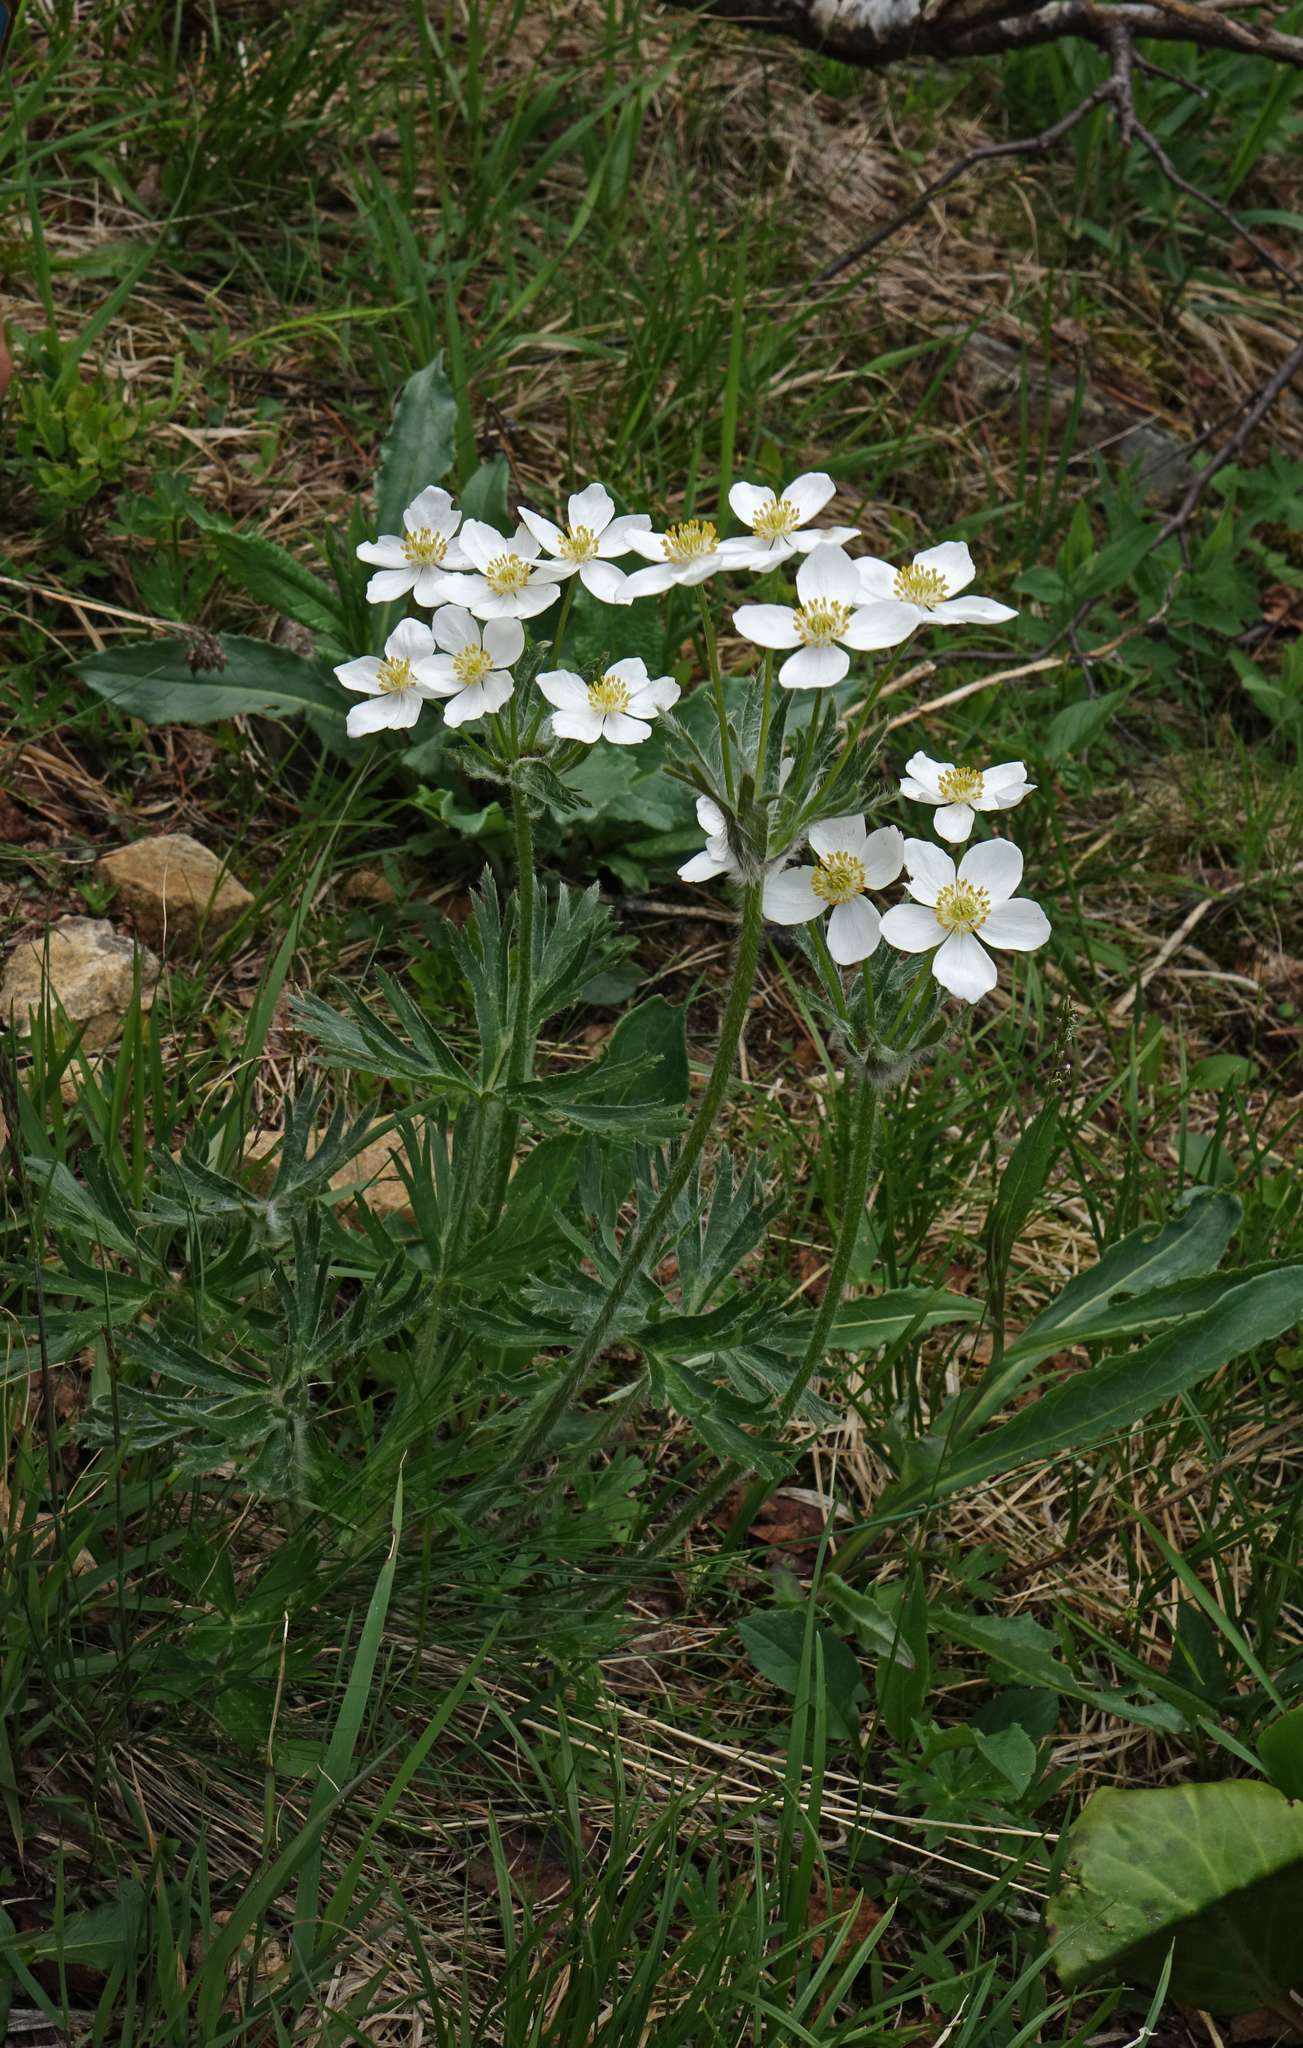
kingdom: Plantae
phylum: Tracheophyta
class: Magnoliopsida
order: Ranunculales
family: Ranunculaceae
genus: Anemonastrum
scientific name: Anemonastrum narcissiflorum
